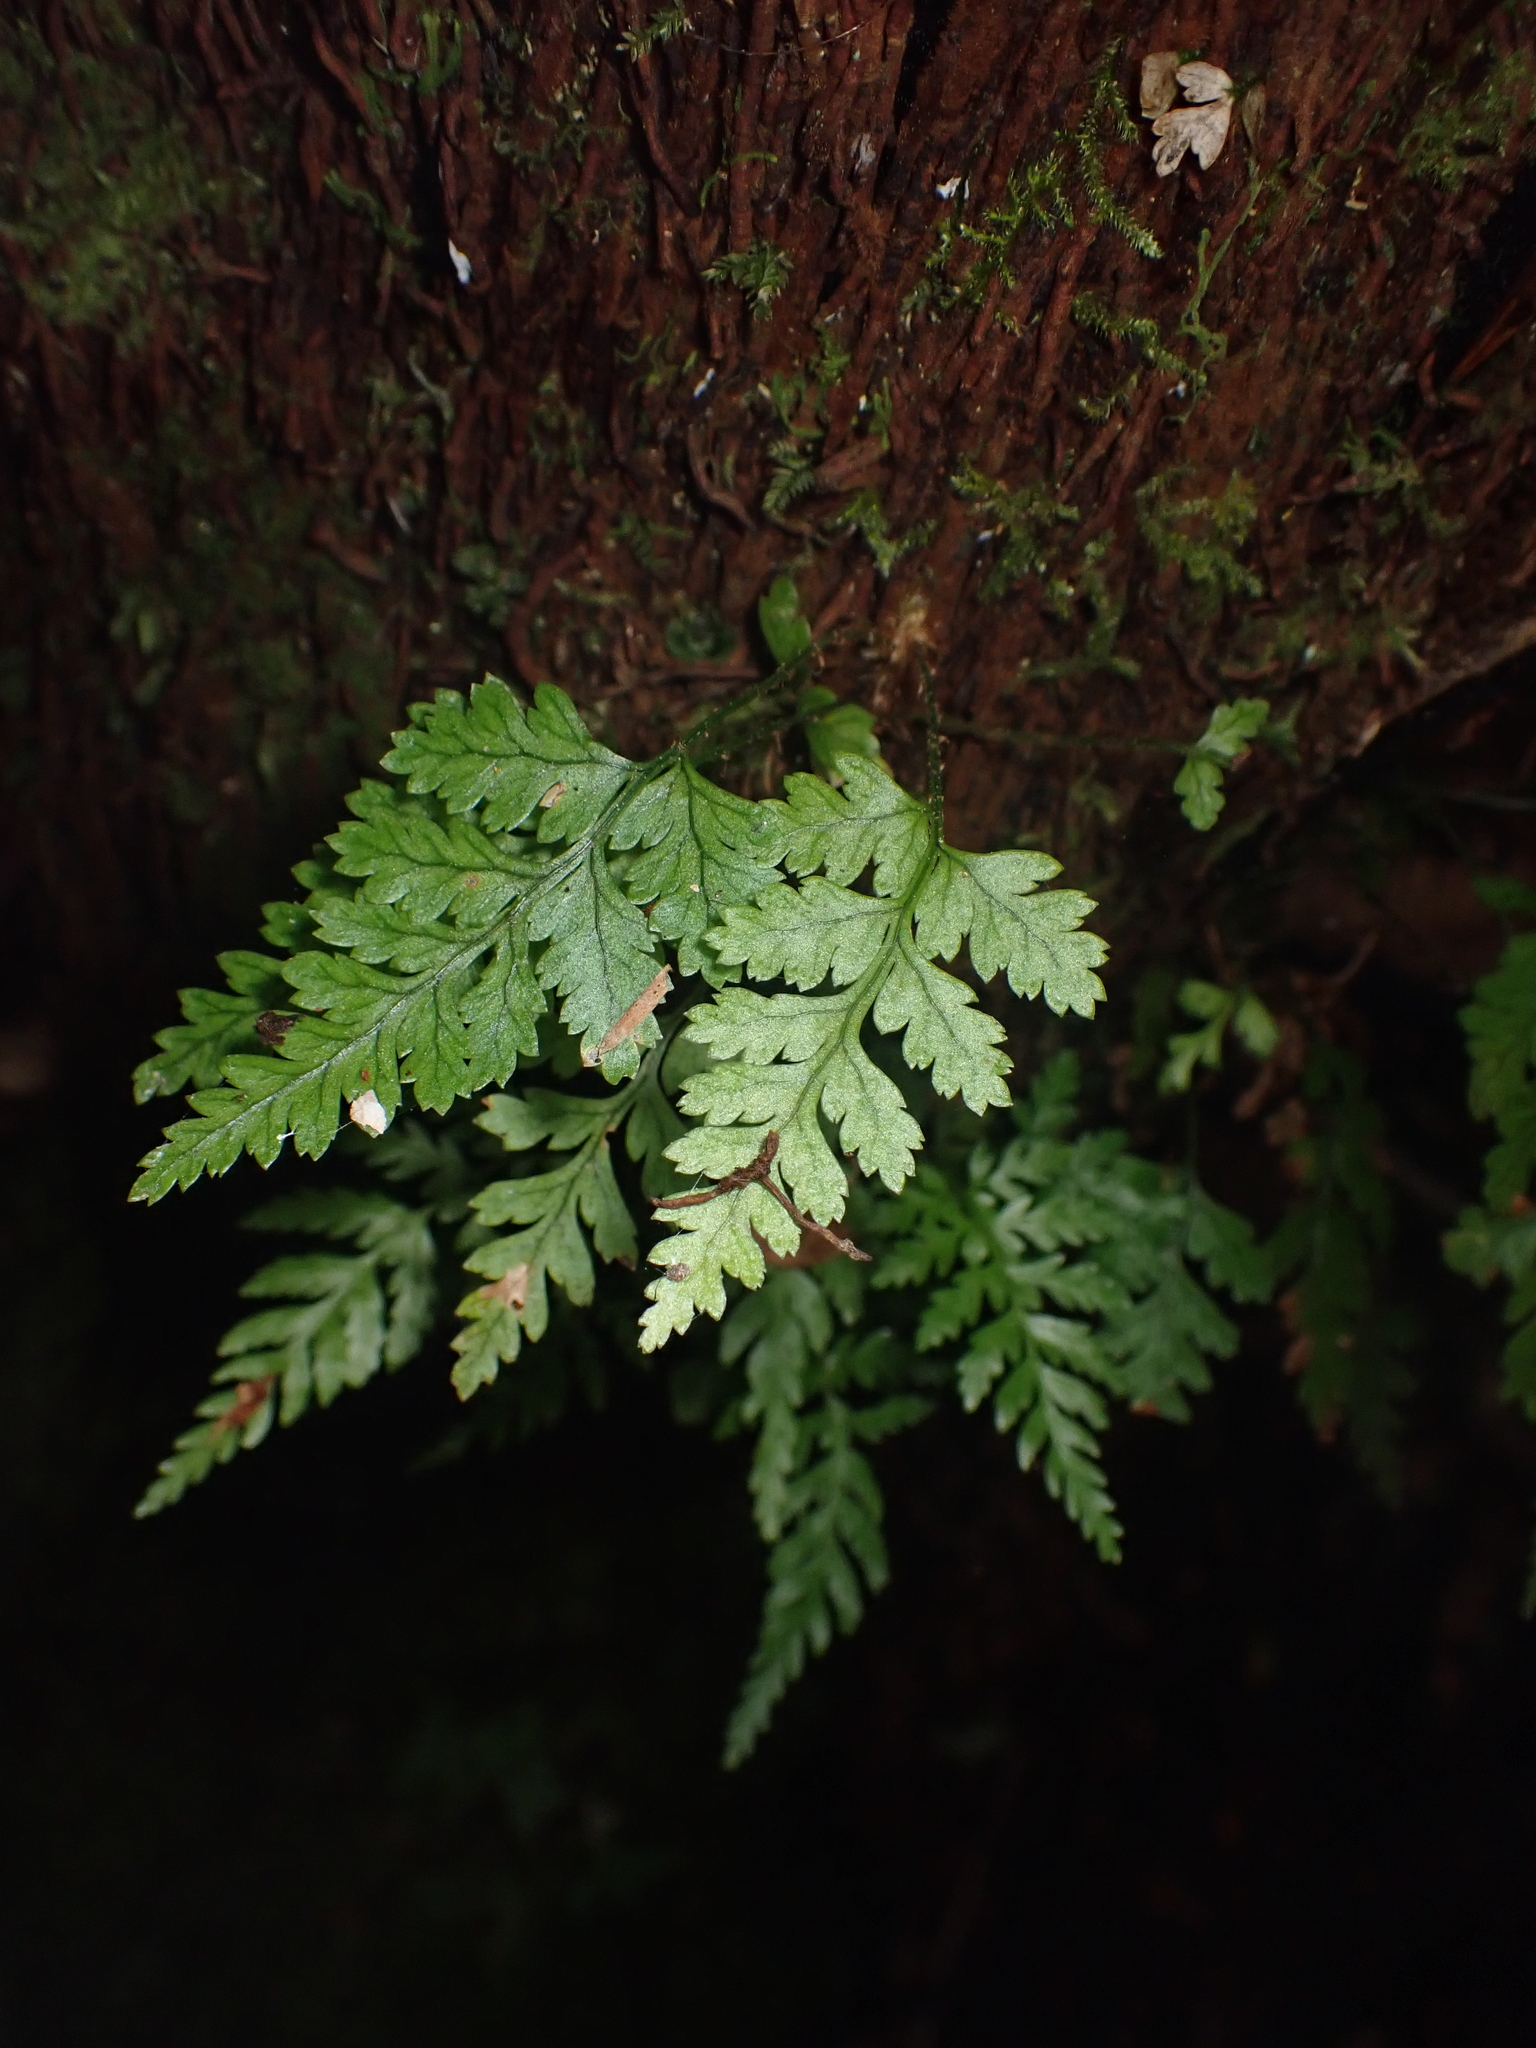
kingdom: Plantae
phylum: Tracheophyta
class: Polypodiopsida
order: Polypodiales
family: Dryopteridaceae
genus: Rumohra
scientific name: Rumohra adiantiformis
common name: Leather fern
